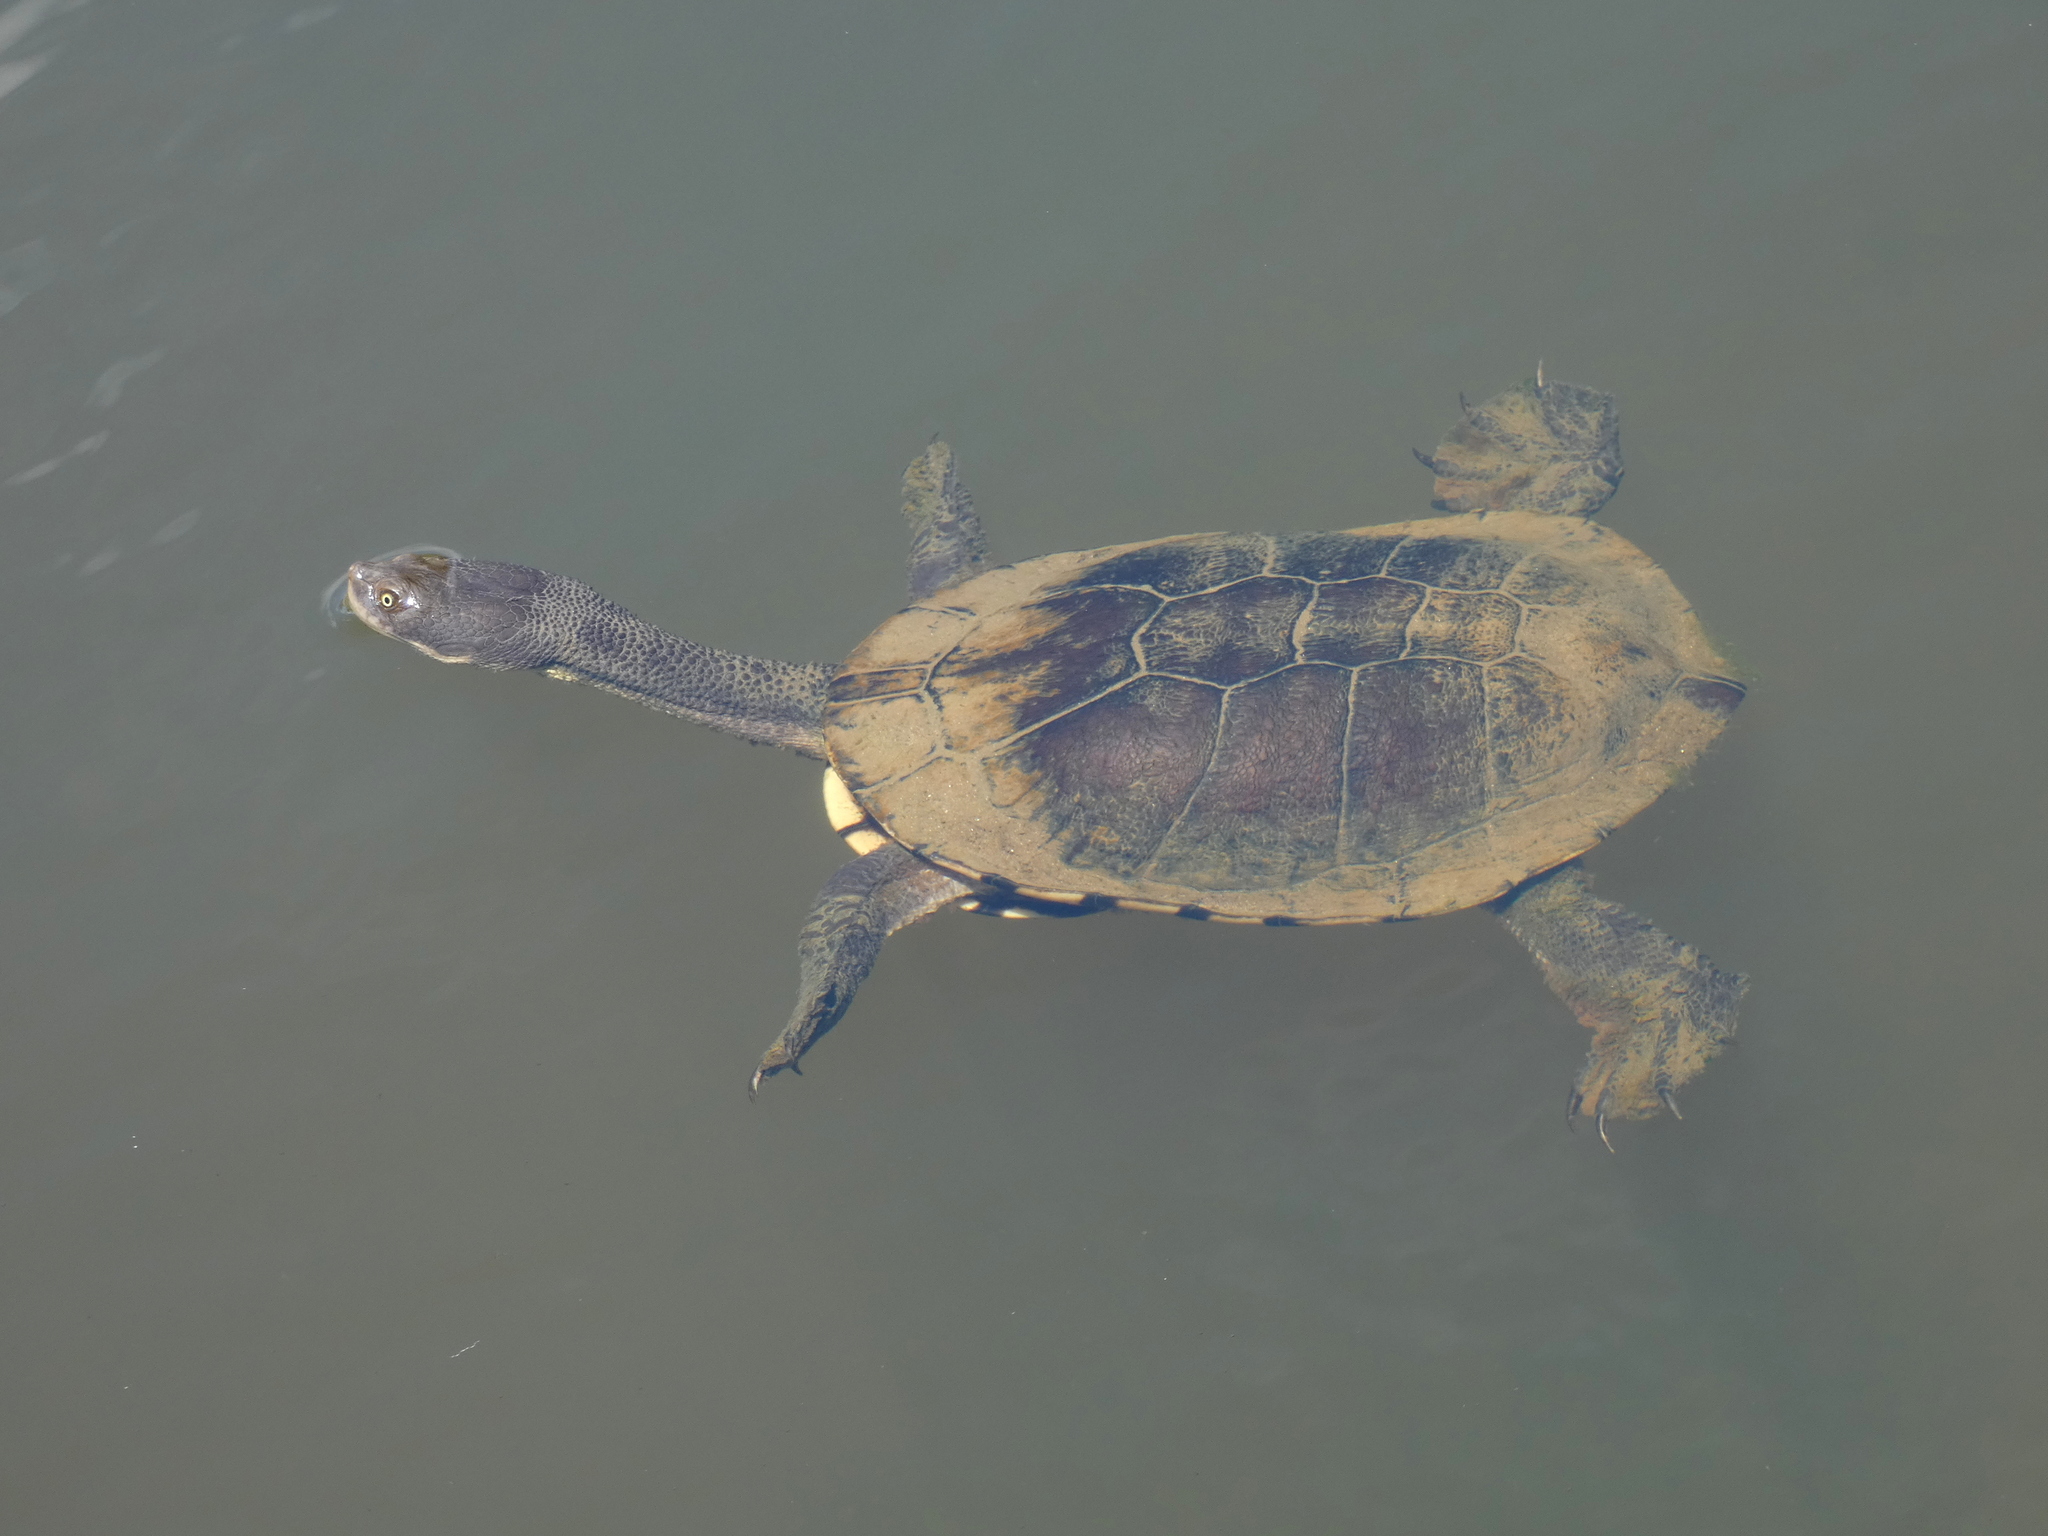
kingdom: Animalia
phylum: Chordata
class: Testudines
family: Chelidae
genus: Chelodina
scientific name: Chelodina longicollis
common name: Eastern snake-necked turtle
